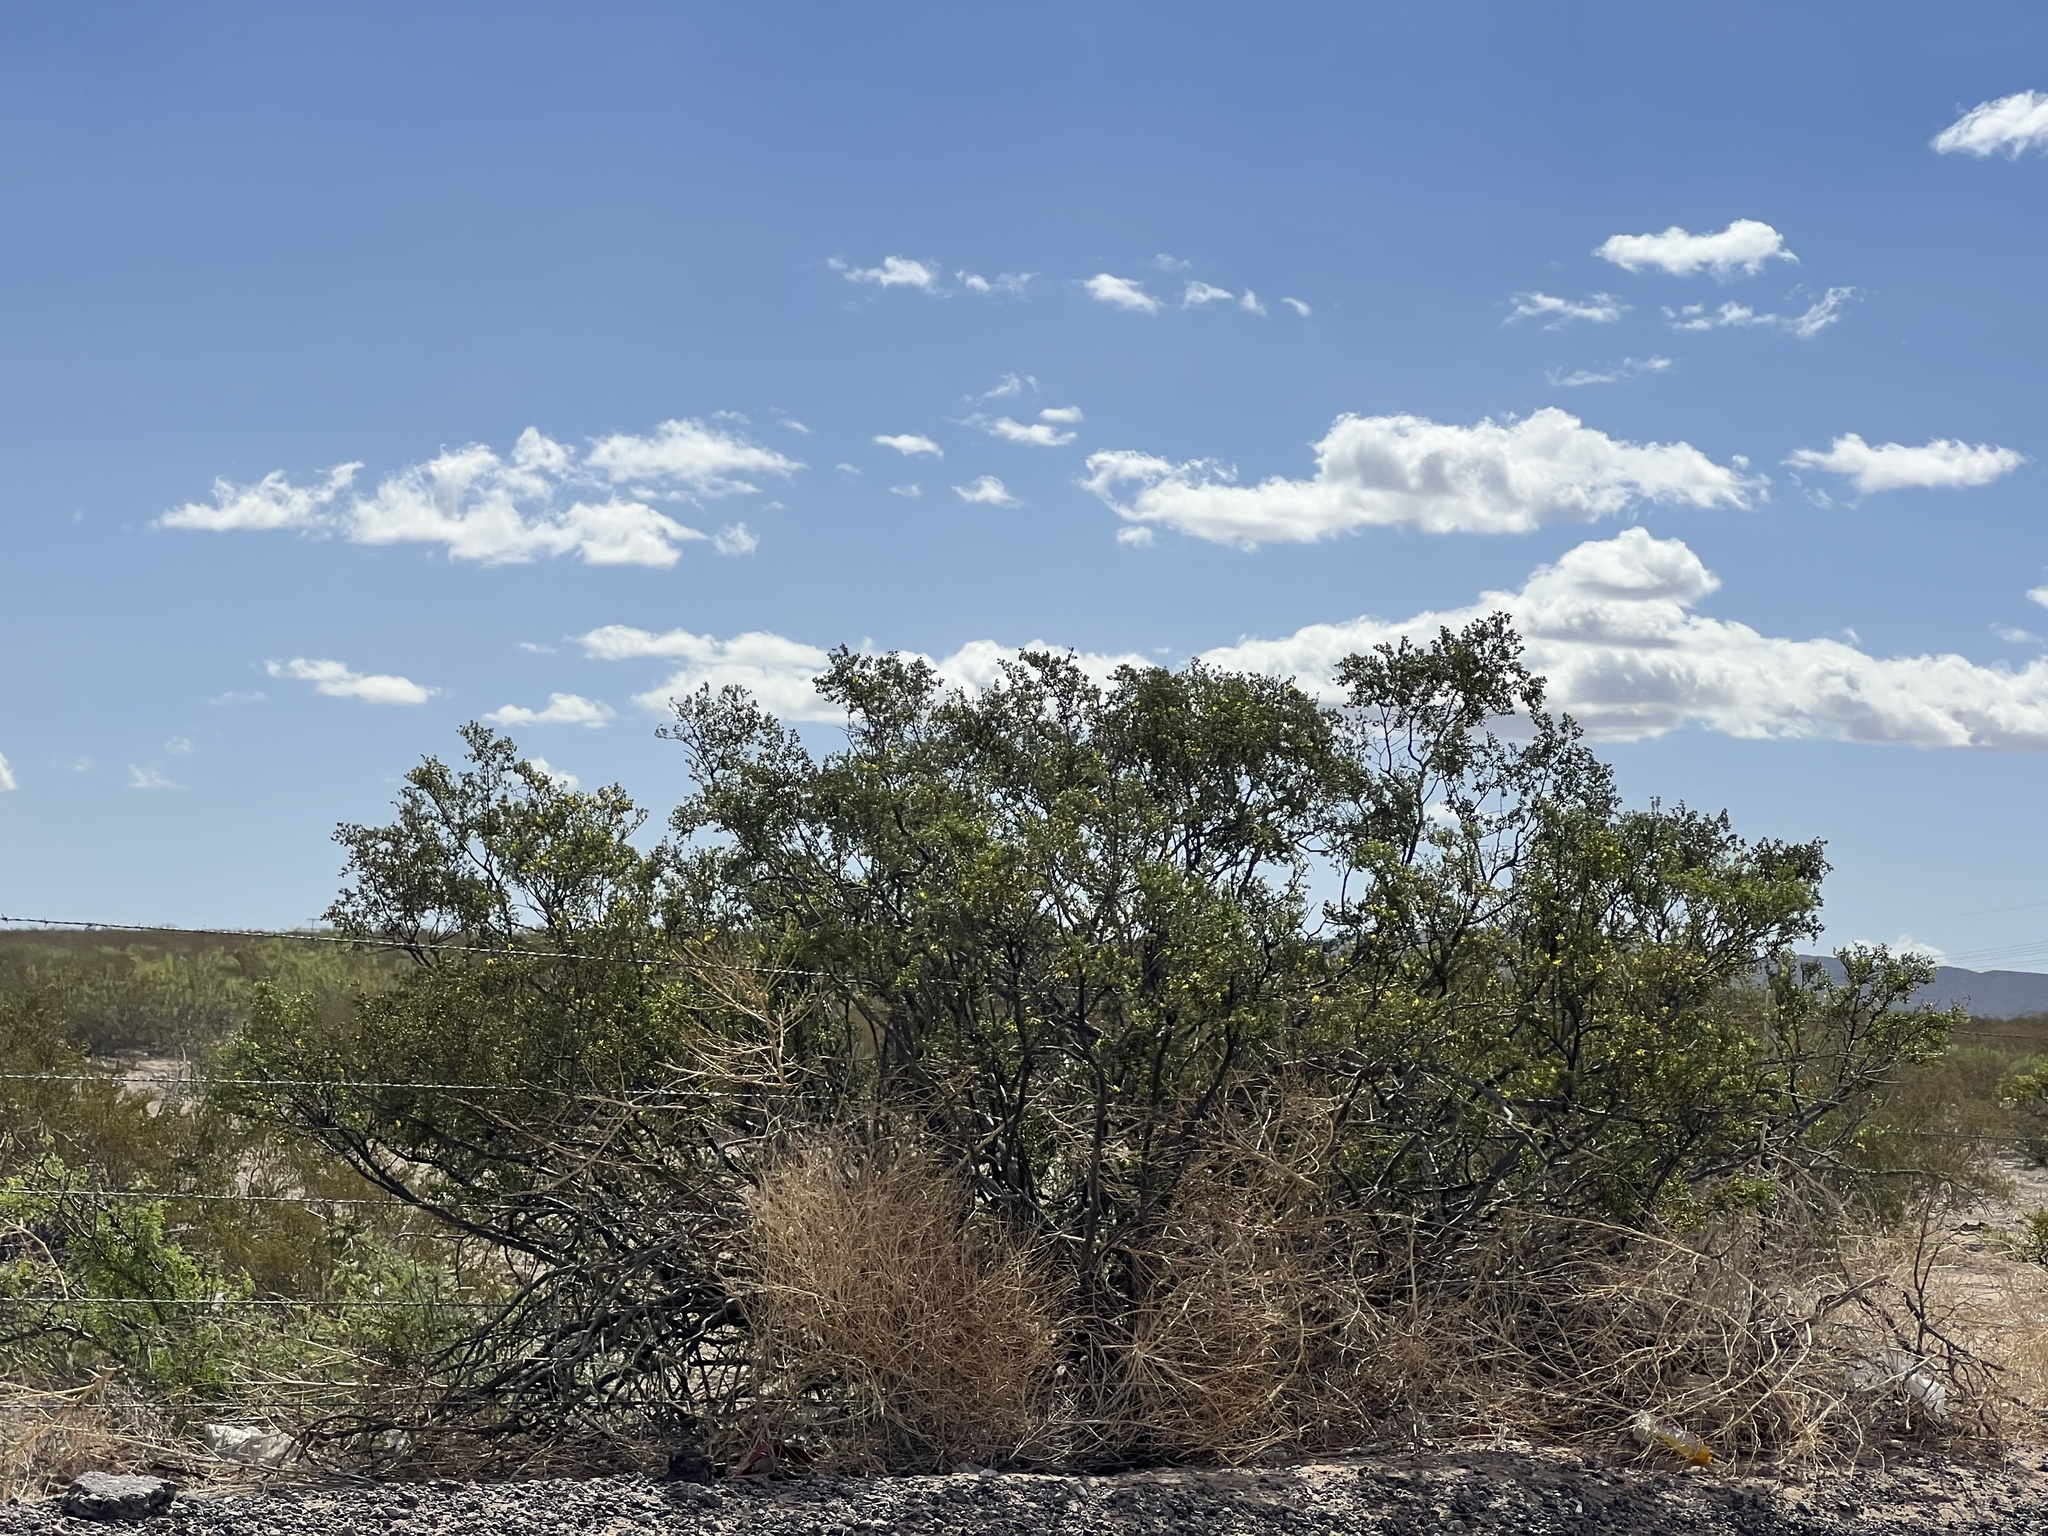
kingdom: Plantae
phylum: Tracheophyta
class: Magnoliopsida
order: Zygophyllales
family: Zygophyllaceae
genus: Larrea
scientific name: Larrea tridentata
